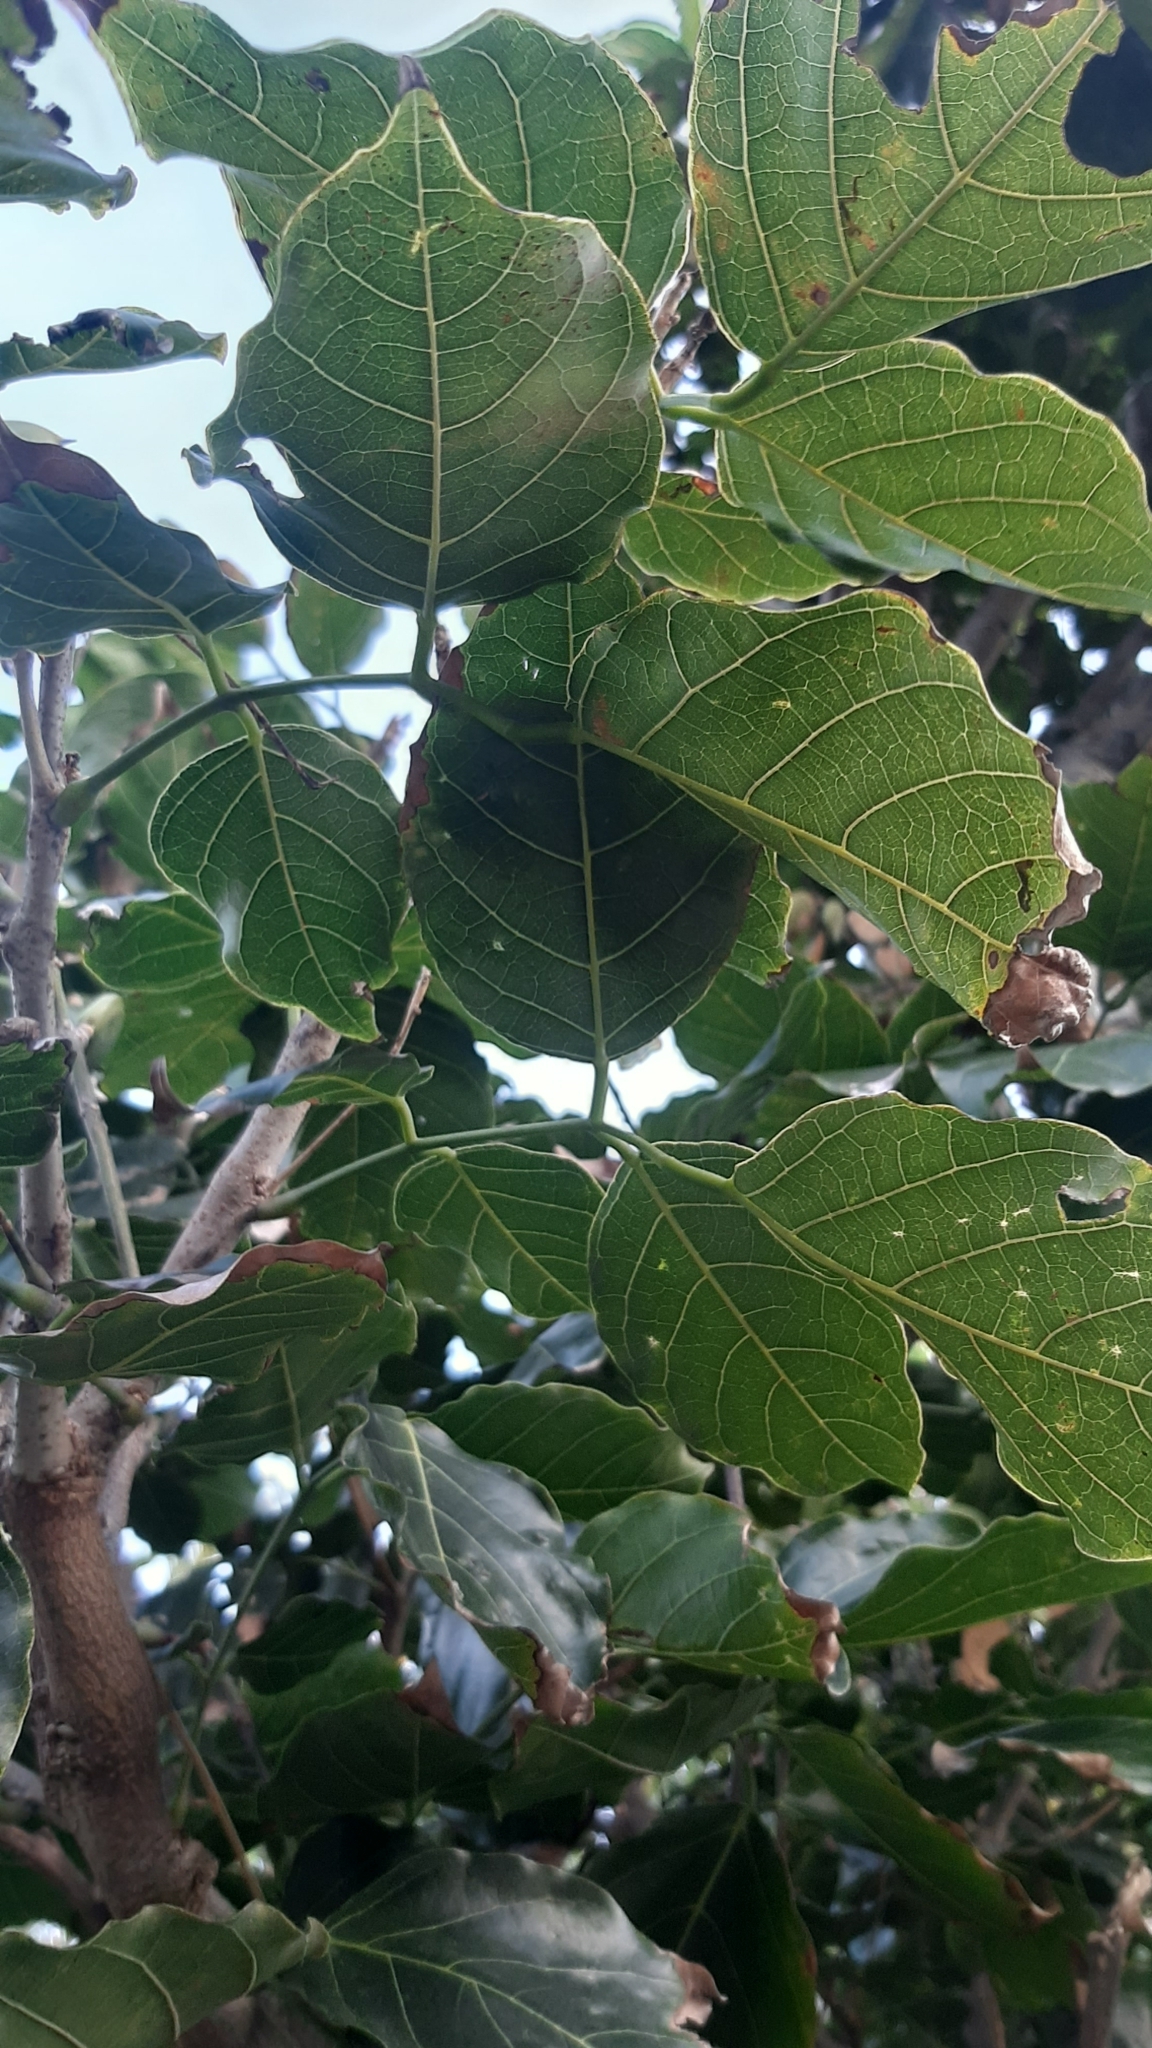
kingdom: Plantae
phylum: Tracheophyta
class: Magnoliopsida
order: Fabales
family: Fabaceae
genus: Pongamia
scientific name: Pongamia pinnata
